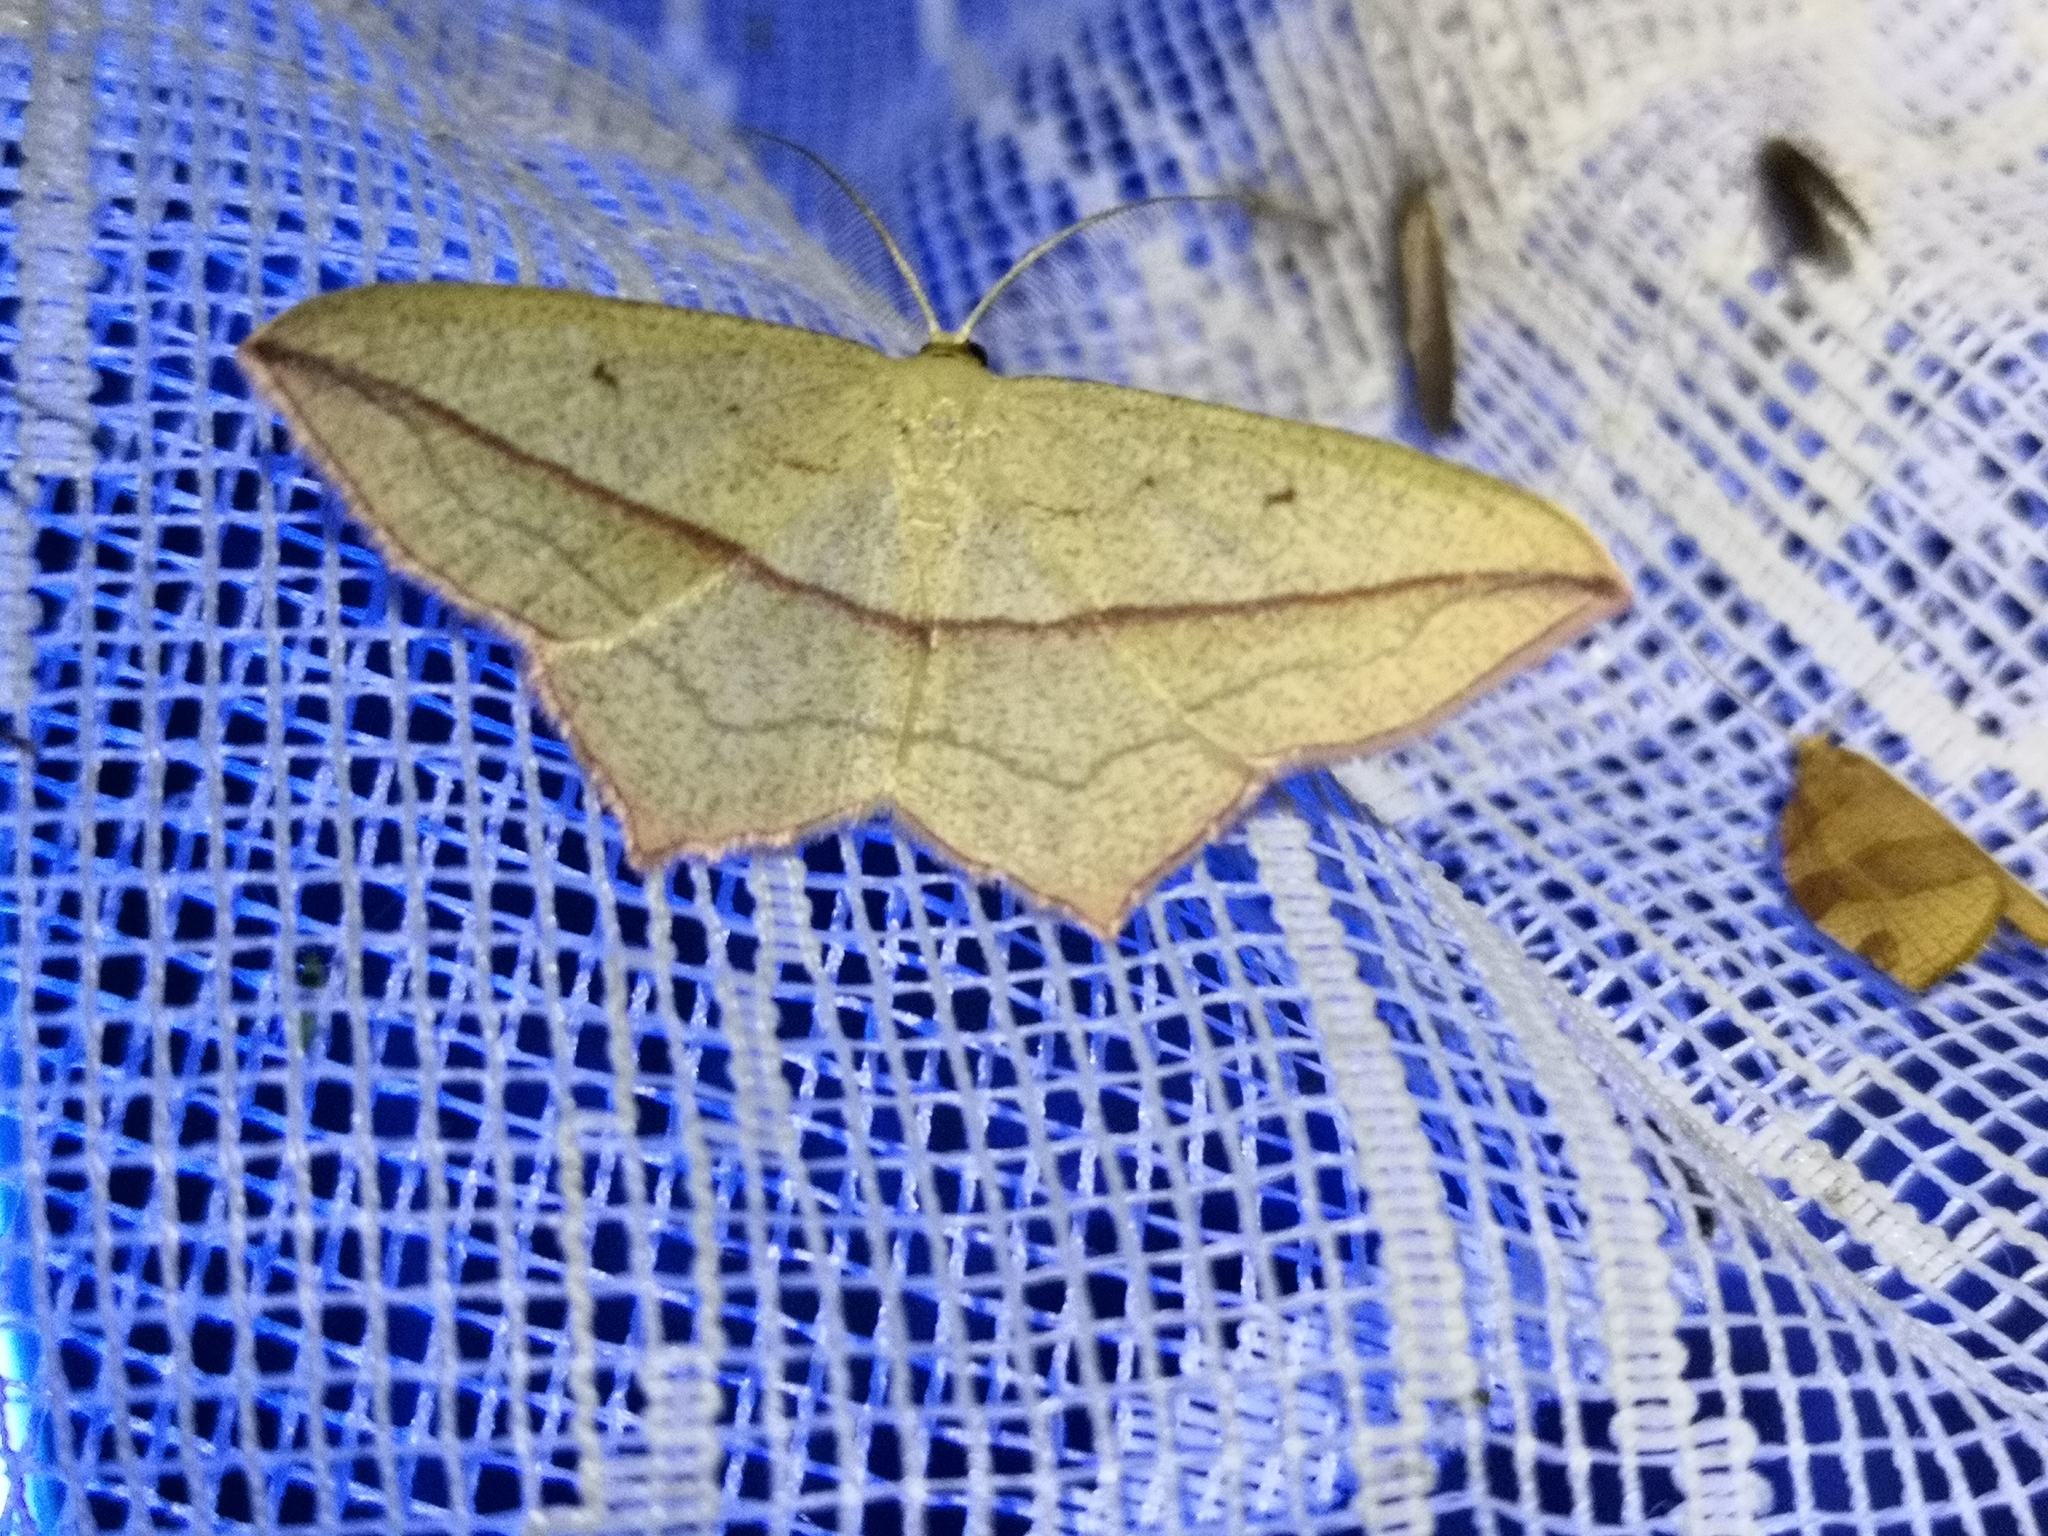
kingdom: Animalia
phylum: Arthropoda
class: Insecta
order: Lepidoptera
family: Geometridae
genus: Timandra
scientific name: Timandra comae
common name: Blood-vein
